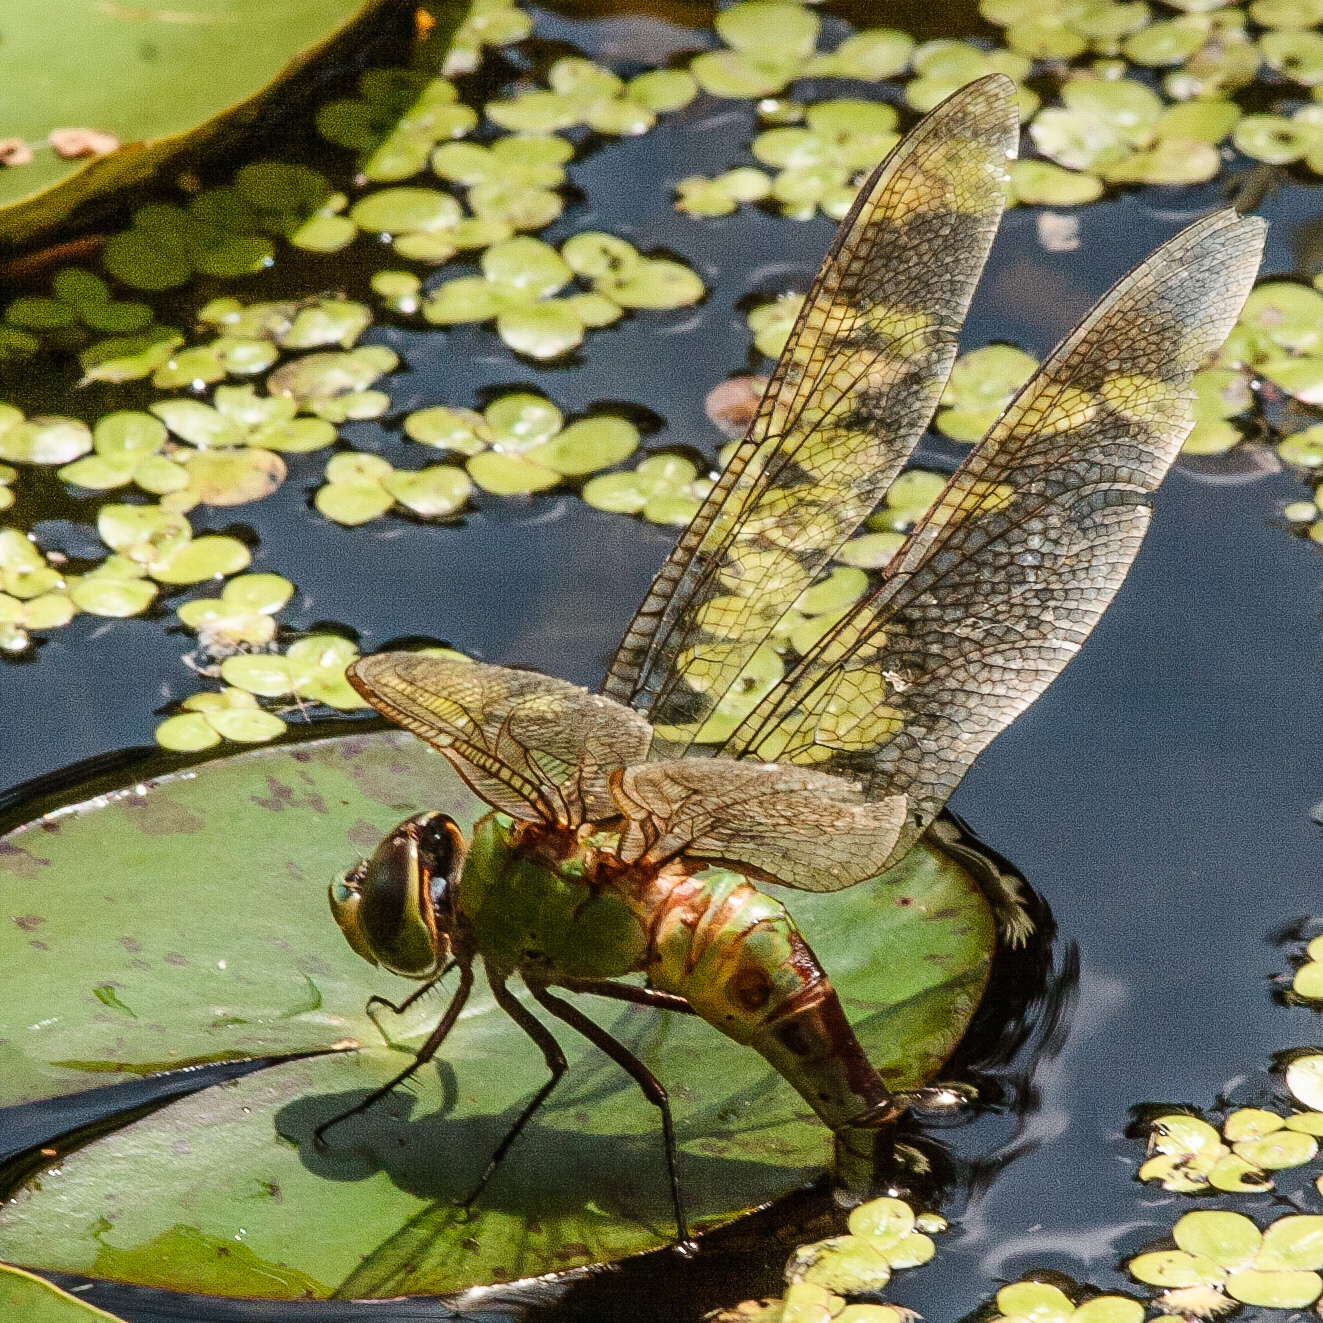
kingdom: Animalia
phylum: Arthropoda
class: Insecta
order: Odonata
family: Aeshnidae
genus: Anax
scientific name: Anax junius
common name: Common green darner
